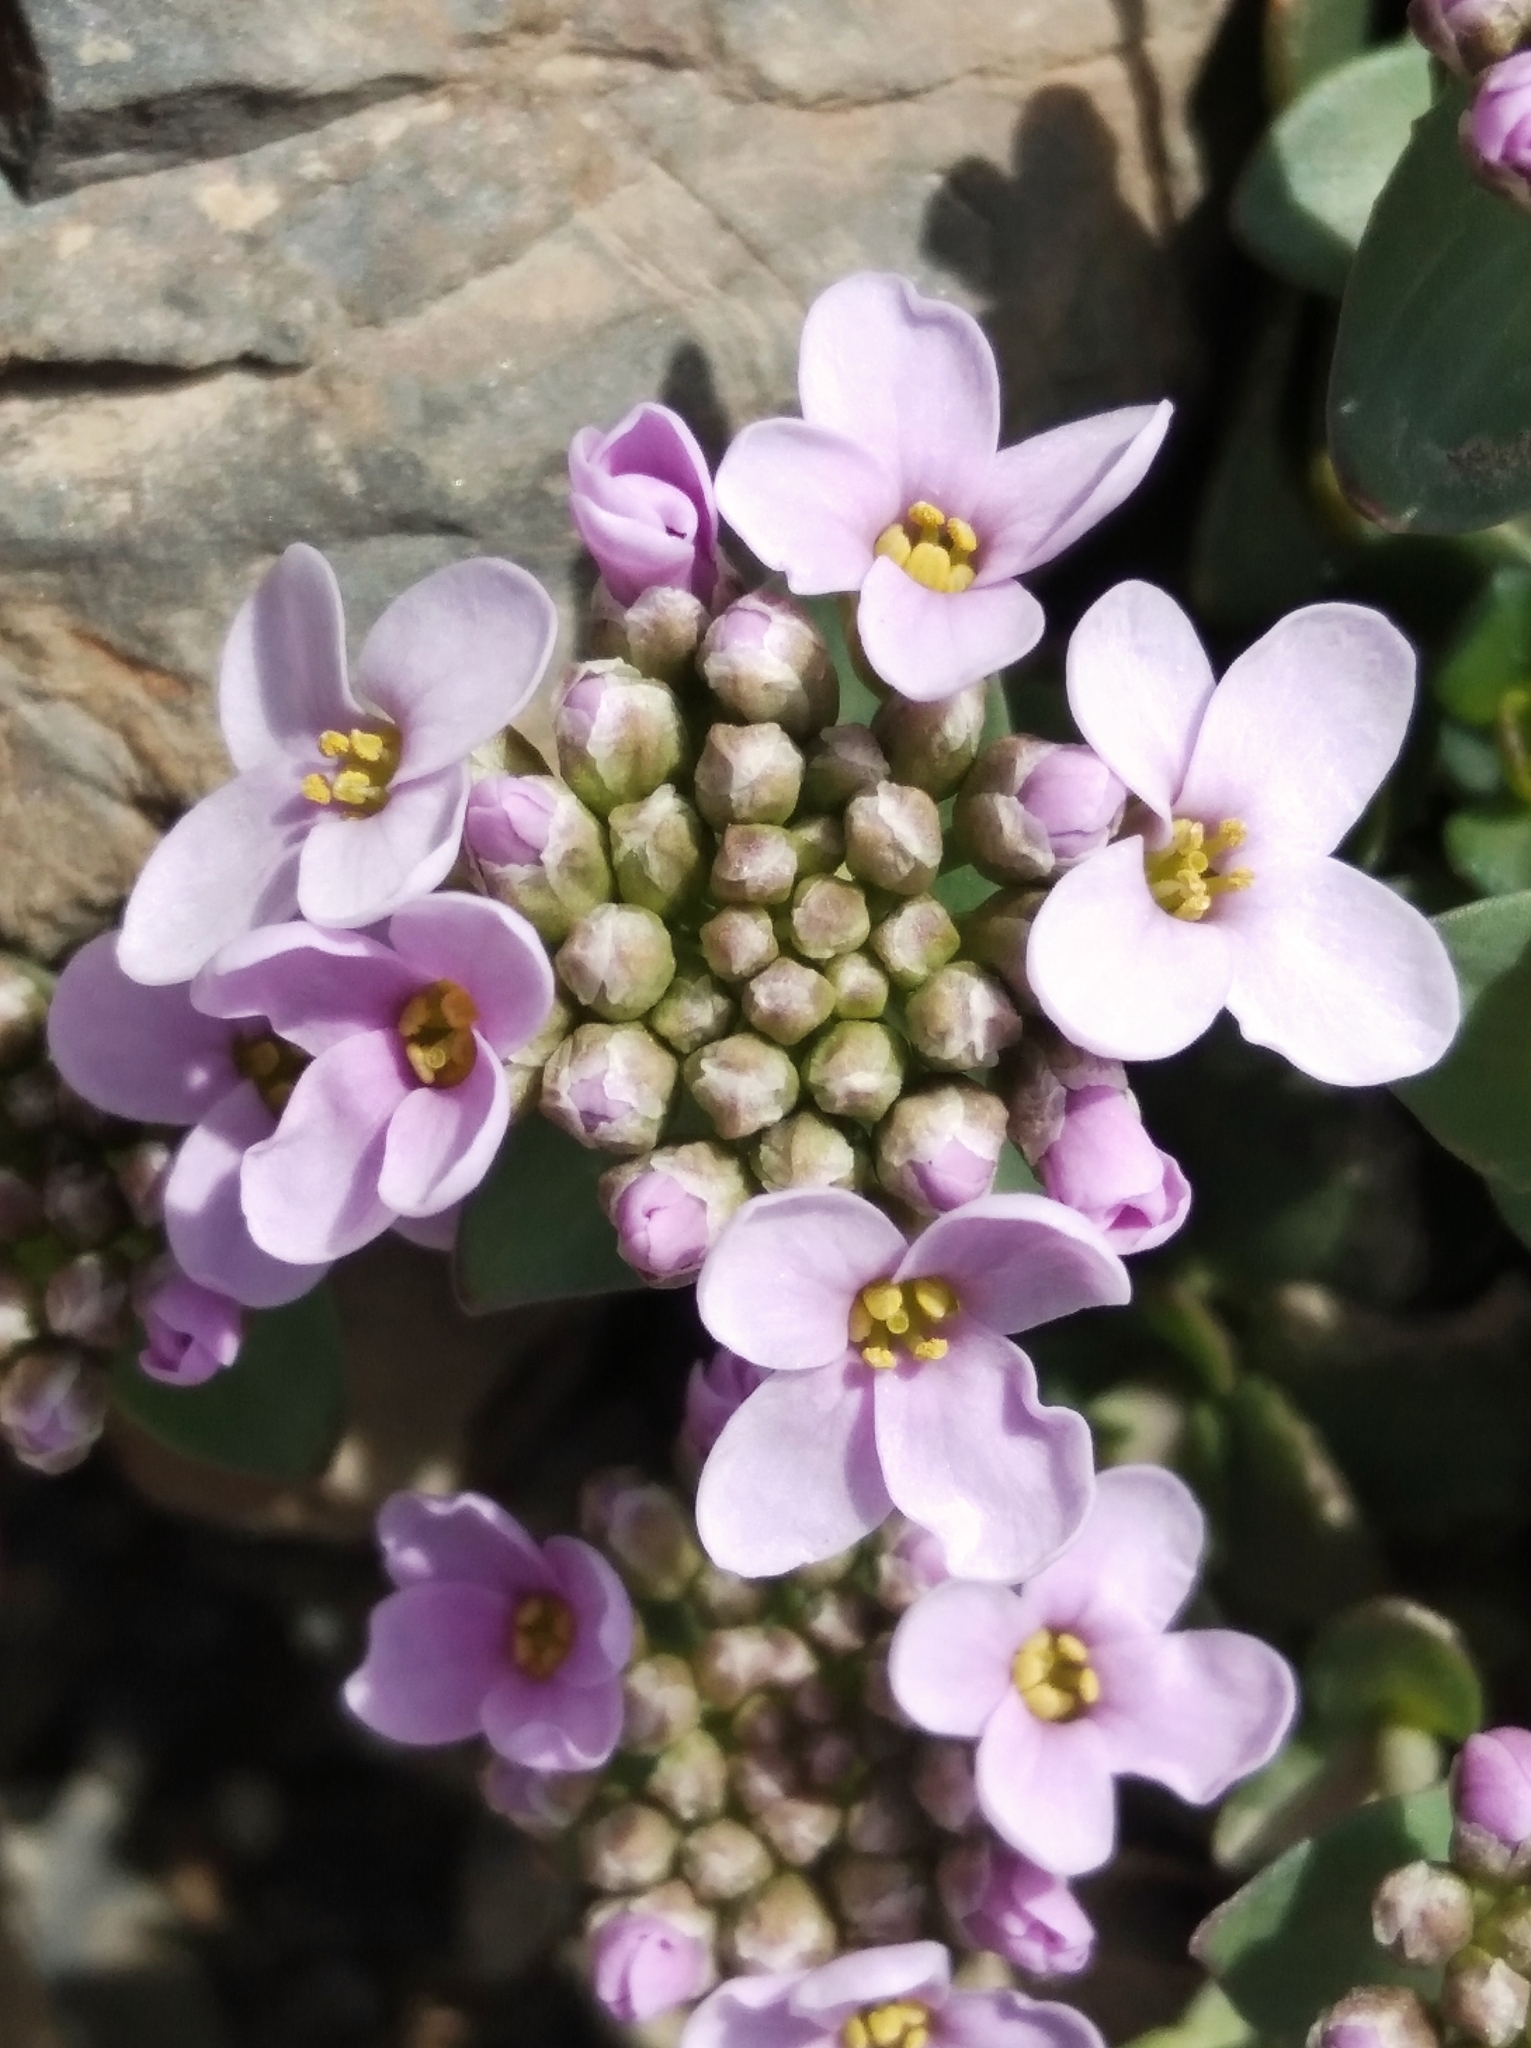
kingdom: Plantae
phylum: Tracheophyta
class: Magnoliopsida
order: Brassicales
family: Brassicaceae
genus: Noccaea
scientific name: Noccaea rotundifolia
